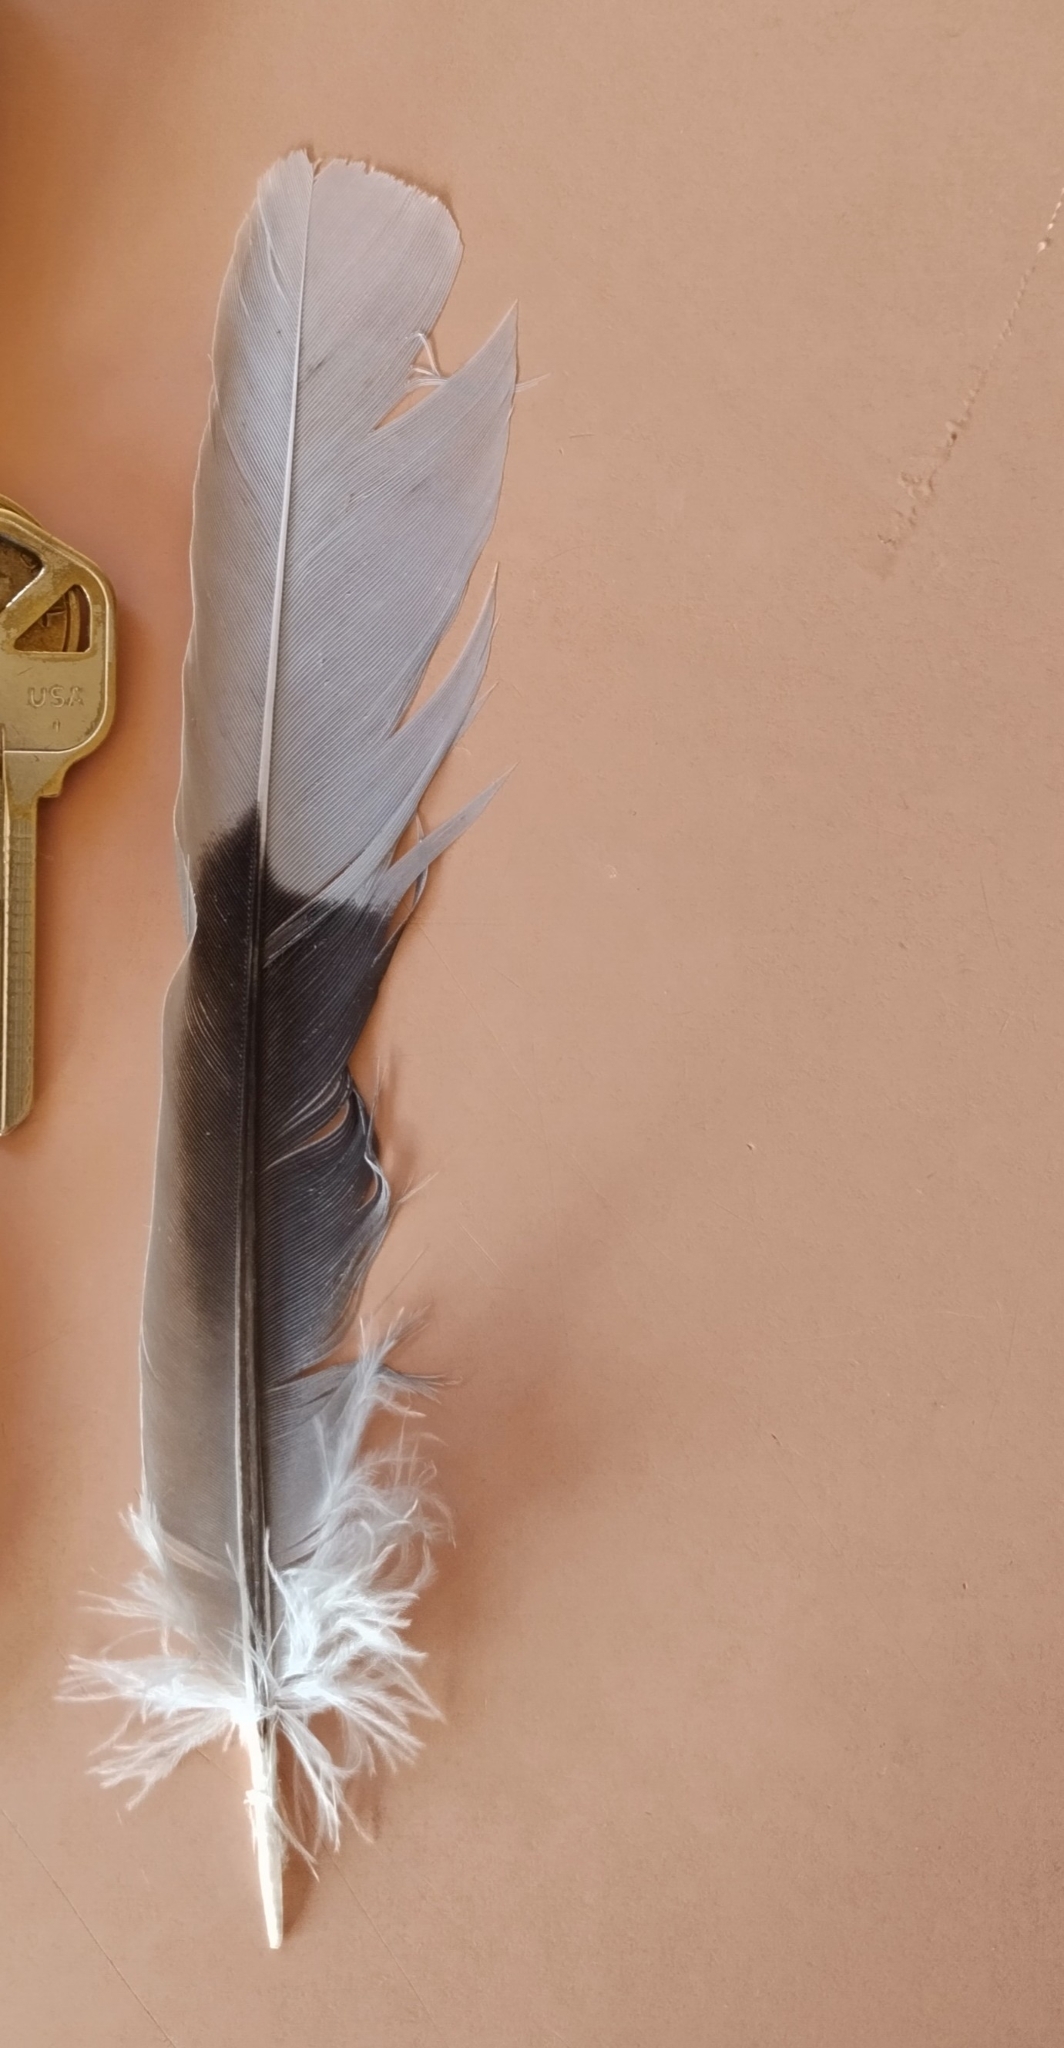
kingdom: Animalia
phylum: Chordata
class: Aves
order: Columbiformes
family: Columbidae
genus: Streptopelia
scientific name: Streptopelia decaocto
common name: Eurasian collared dove
